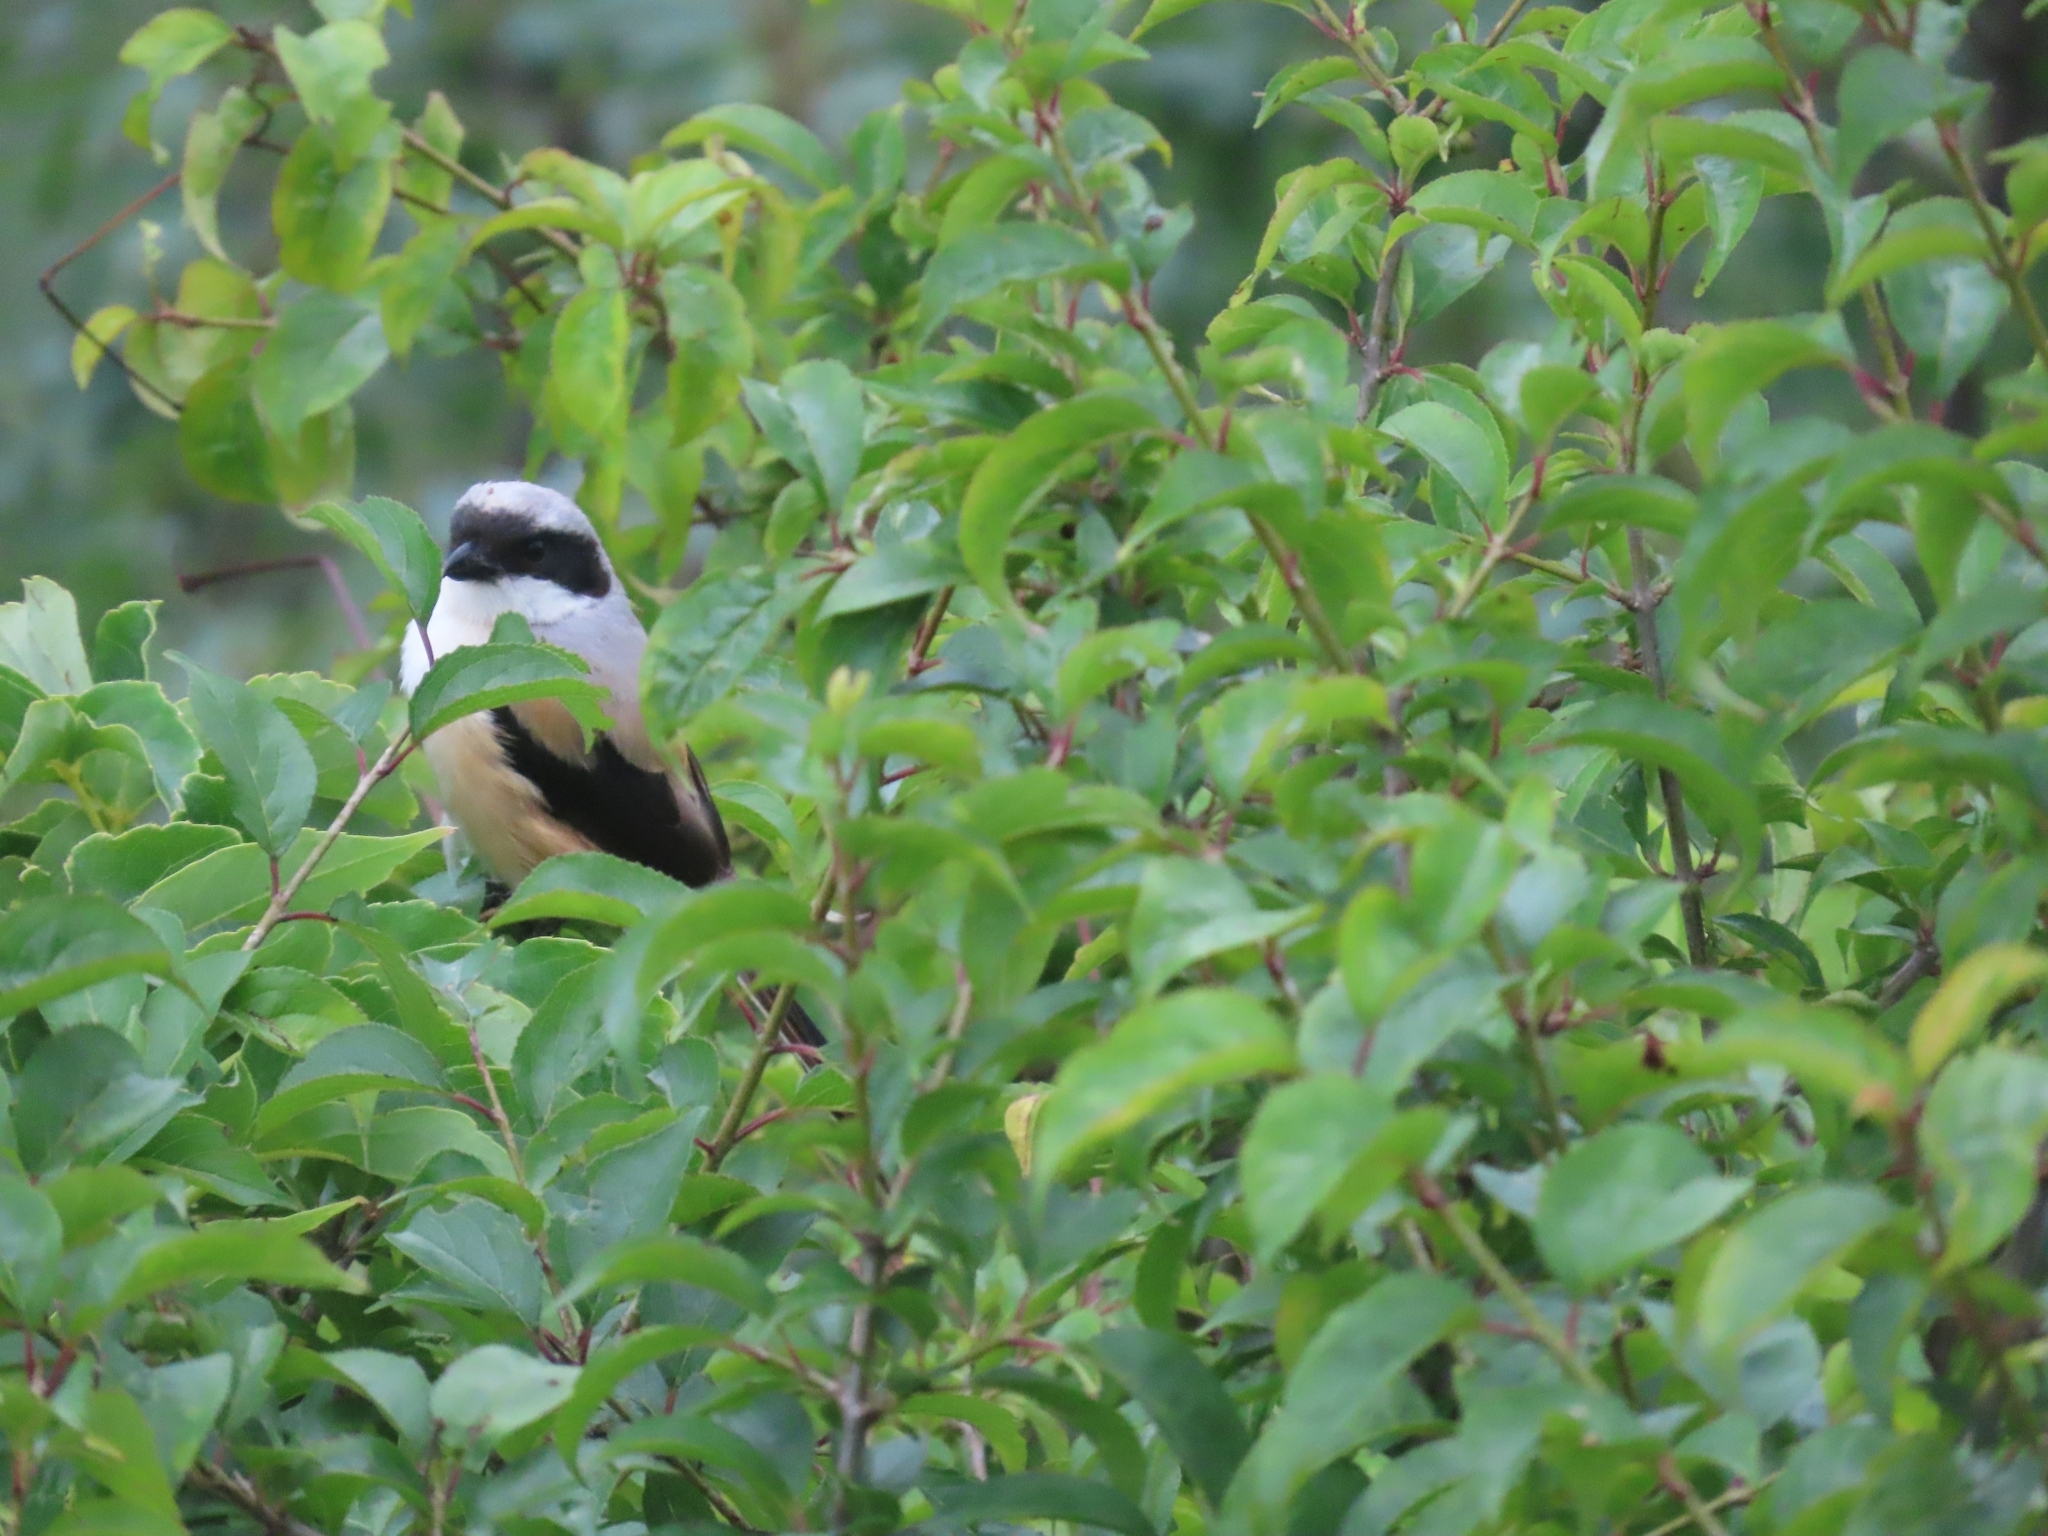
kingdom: Animalia
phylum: Chordata
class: Aves
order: Passeriformes
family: Laniidae
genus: Lanius
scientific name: Lanius schach
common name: Long-tailed shrike
